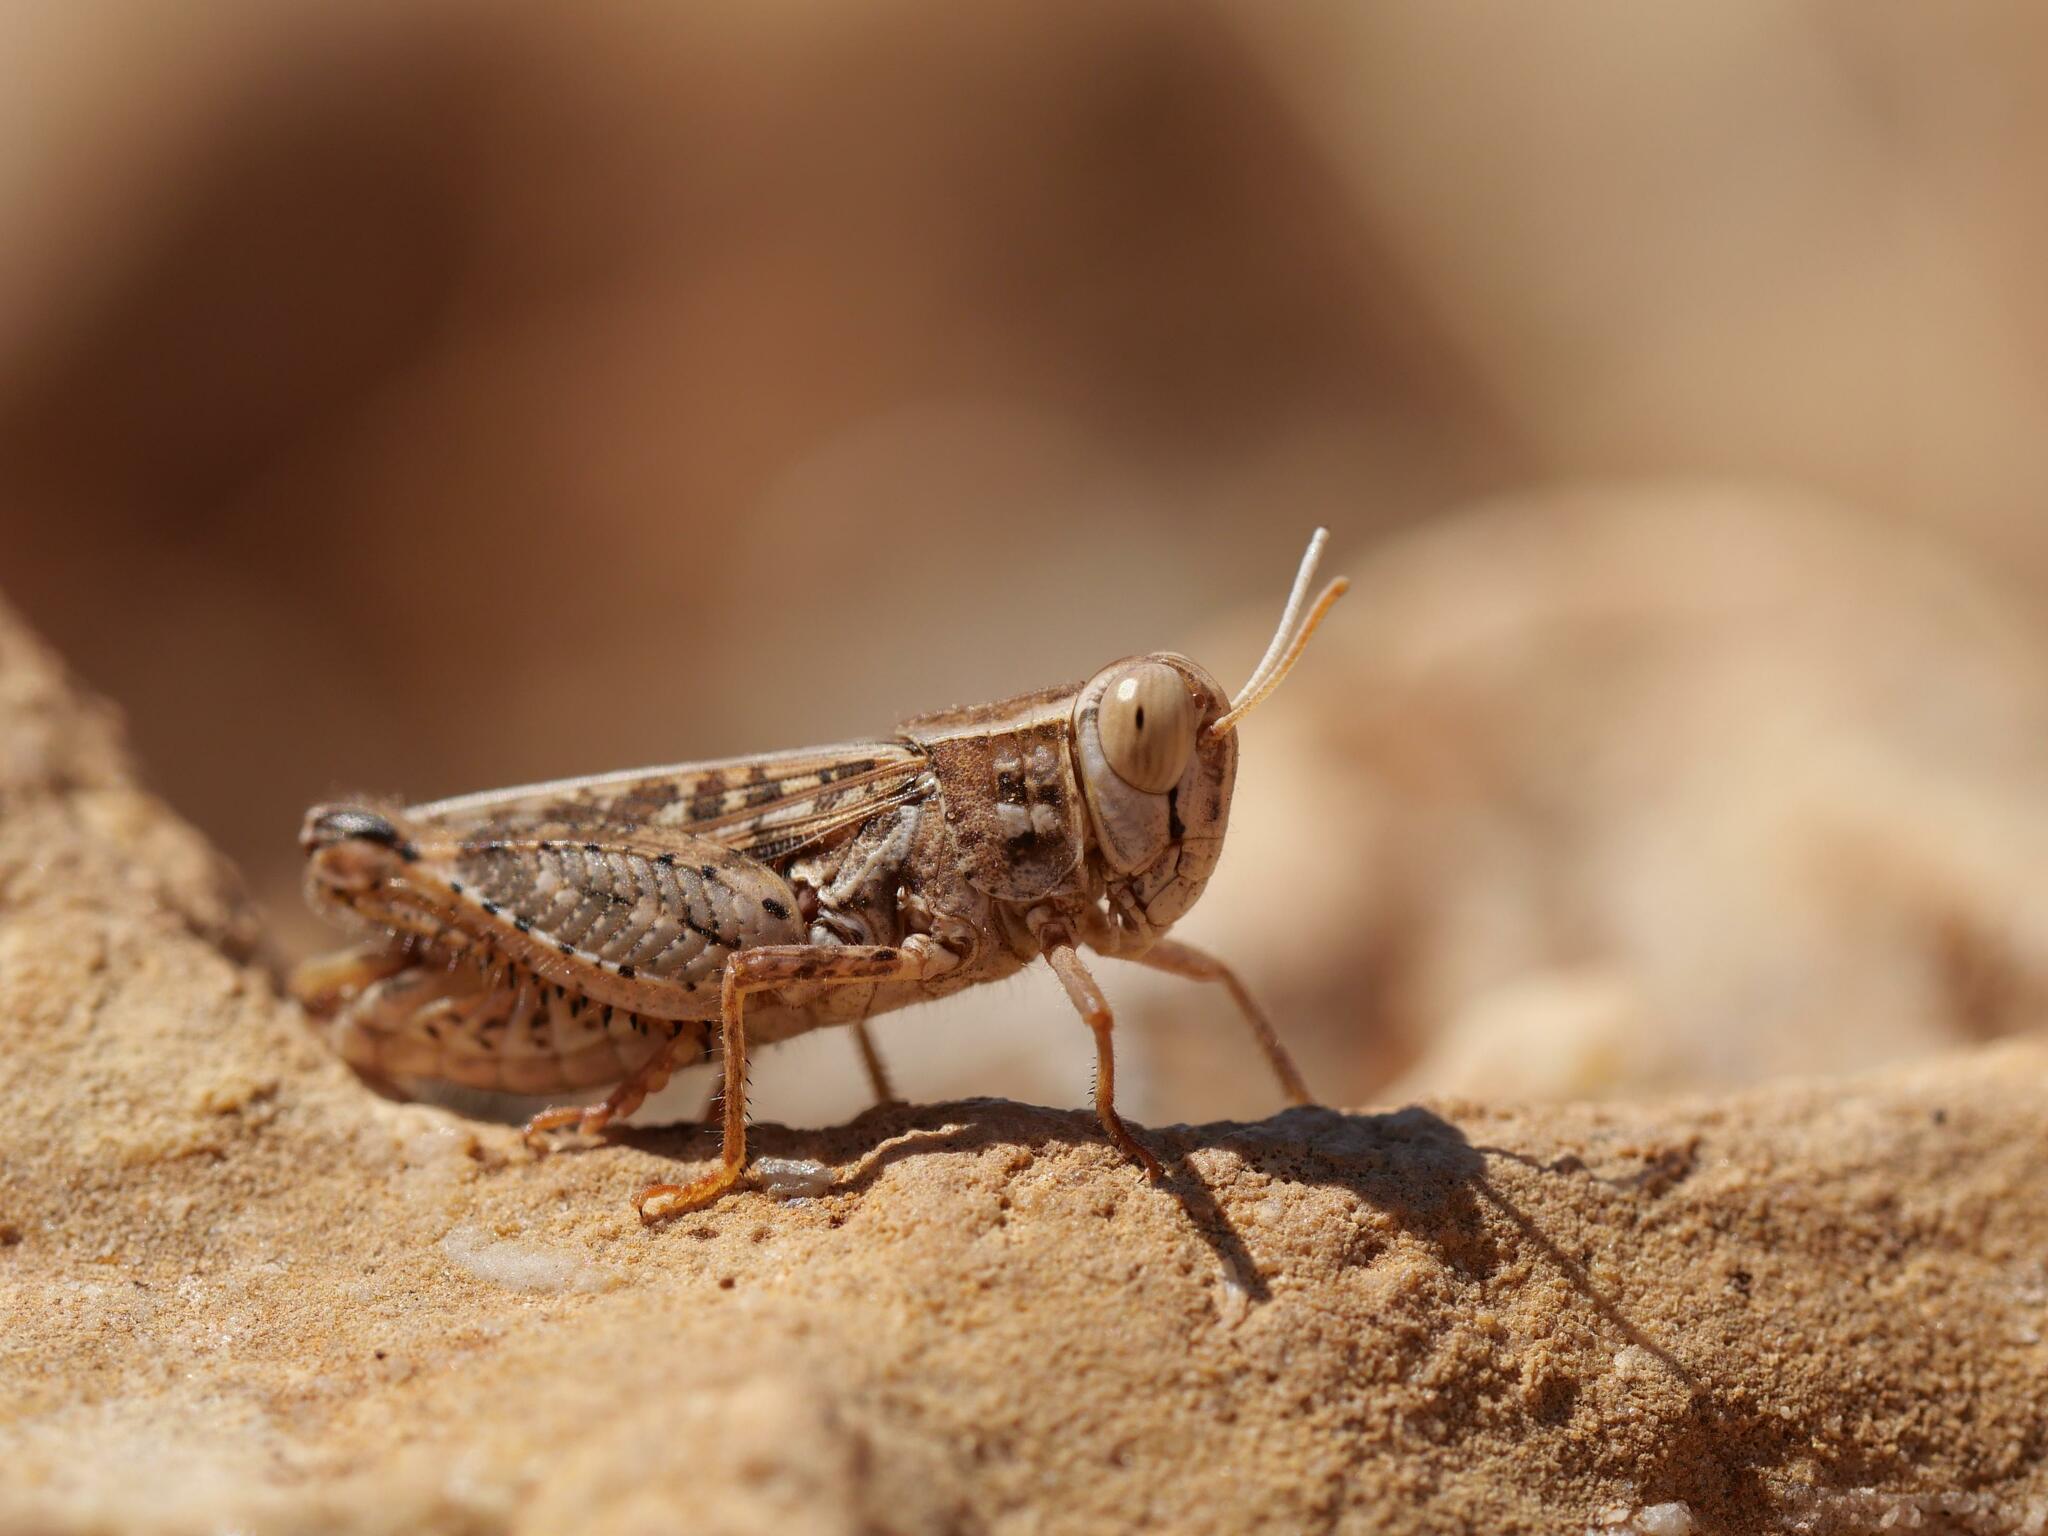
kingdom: Animalia
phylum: Arthropoda
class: Insecta
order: Orthoptera
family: Acrididae
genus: Calliptamus
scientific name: Calliptamus
